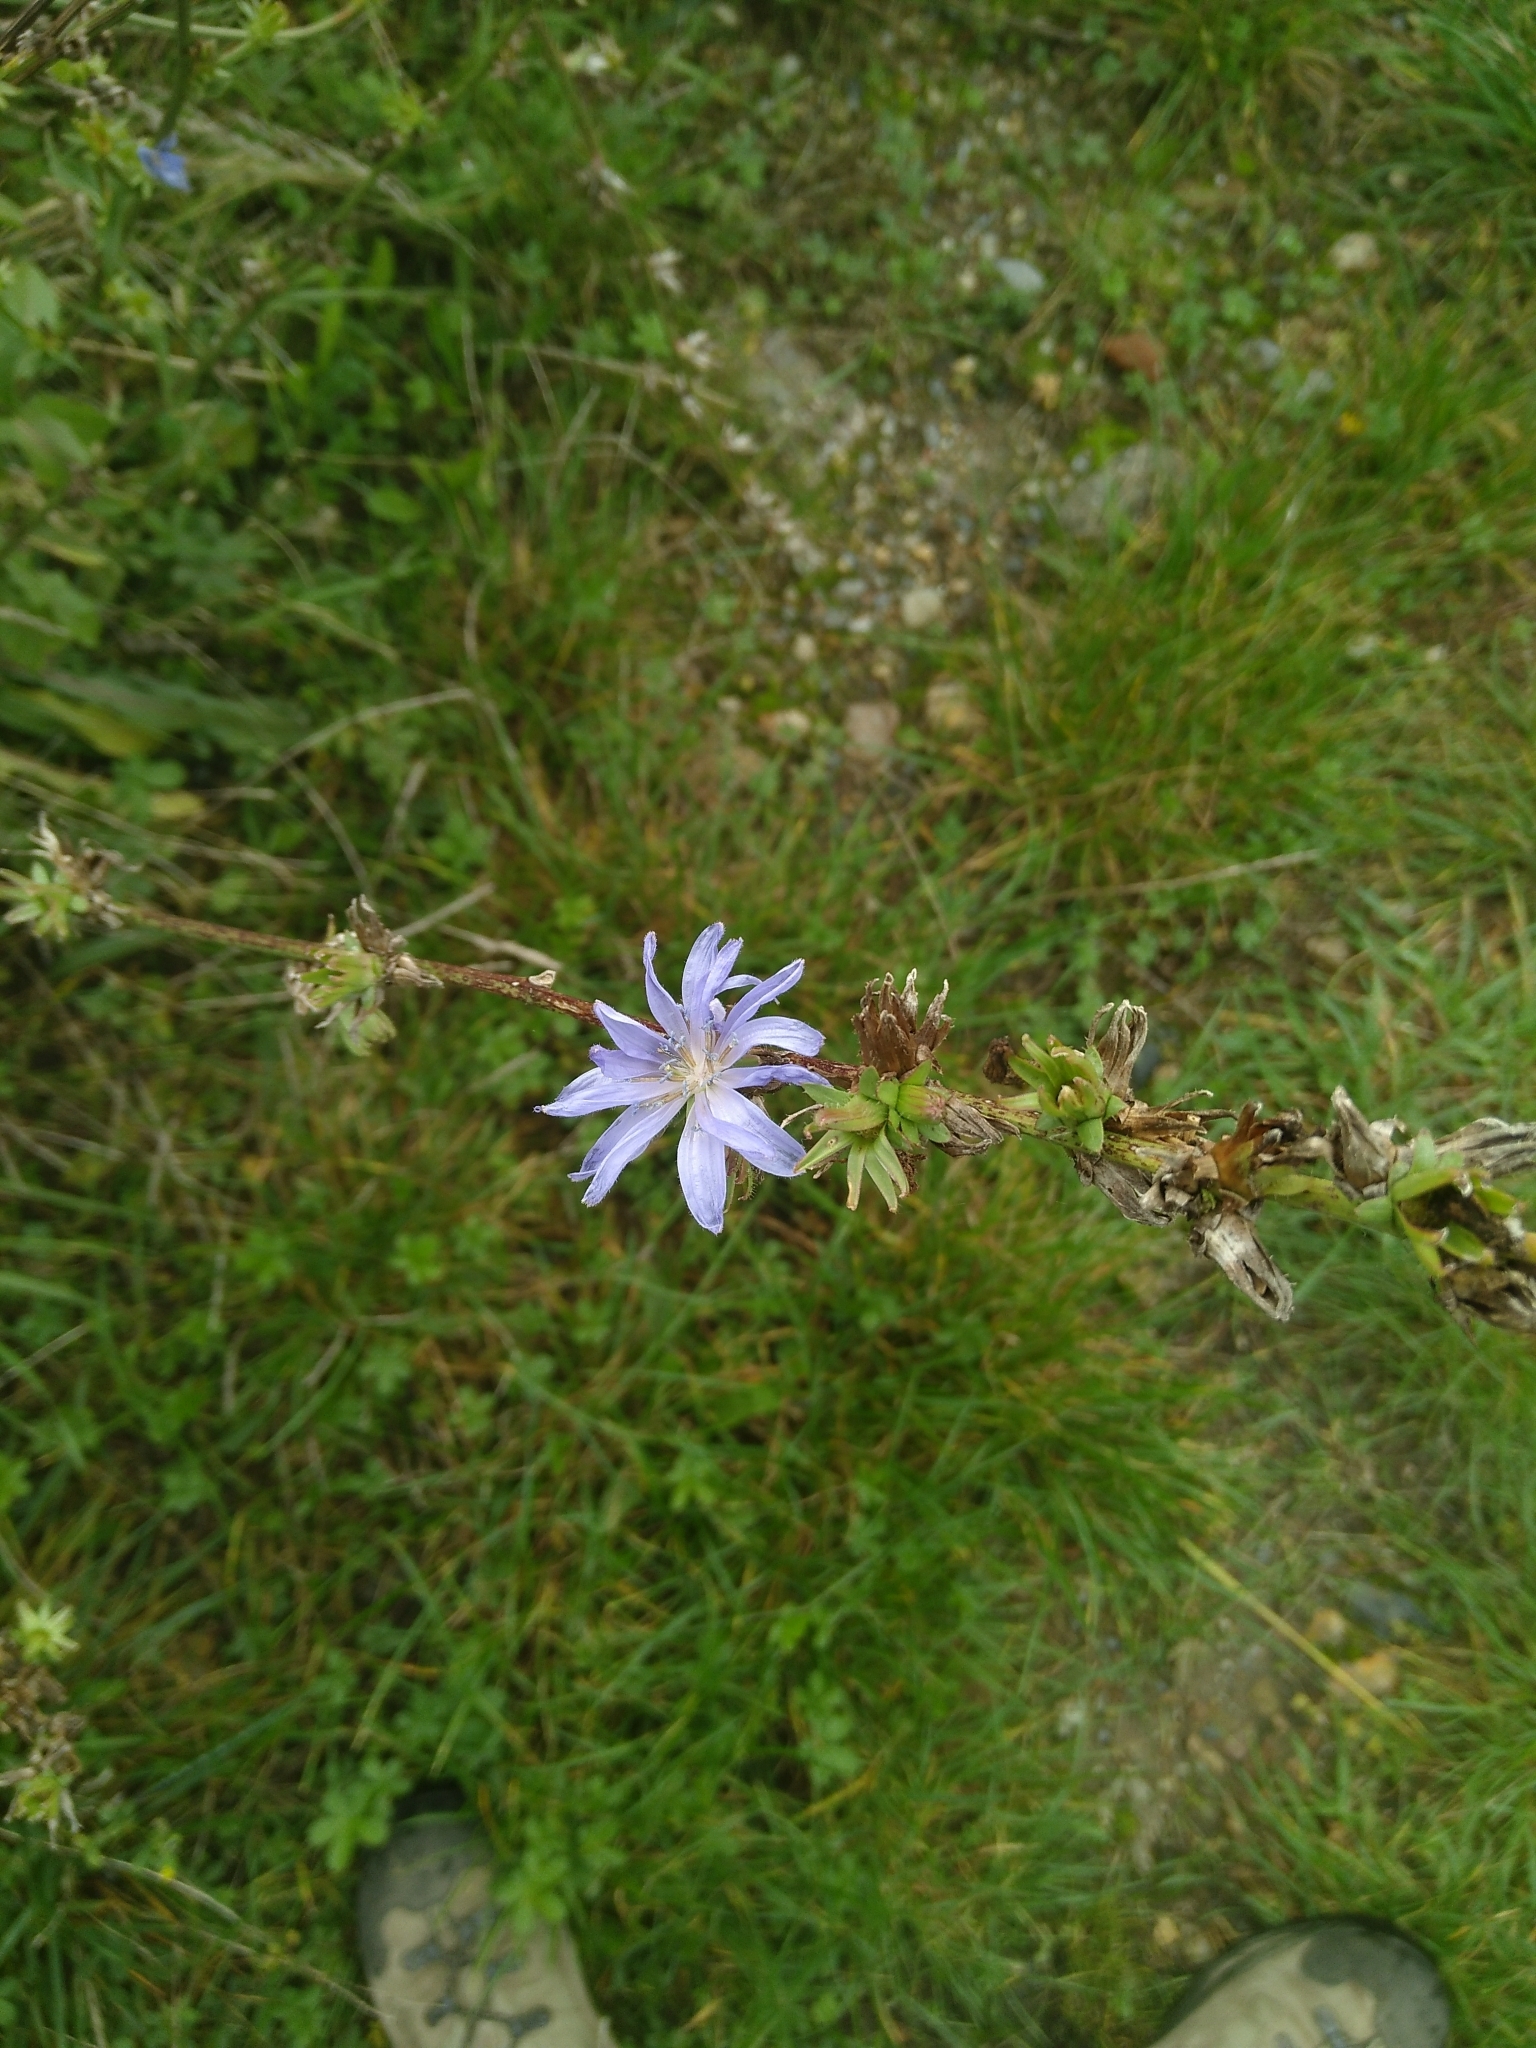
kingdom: Plantae
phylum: Tracheophyta
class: Magnoliopsida
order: Asterales
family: Asteraceae
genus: Cichorium
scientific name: Cichorium intybus
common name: Chicory
